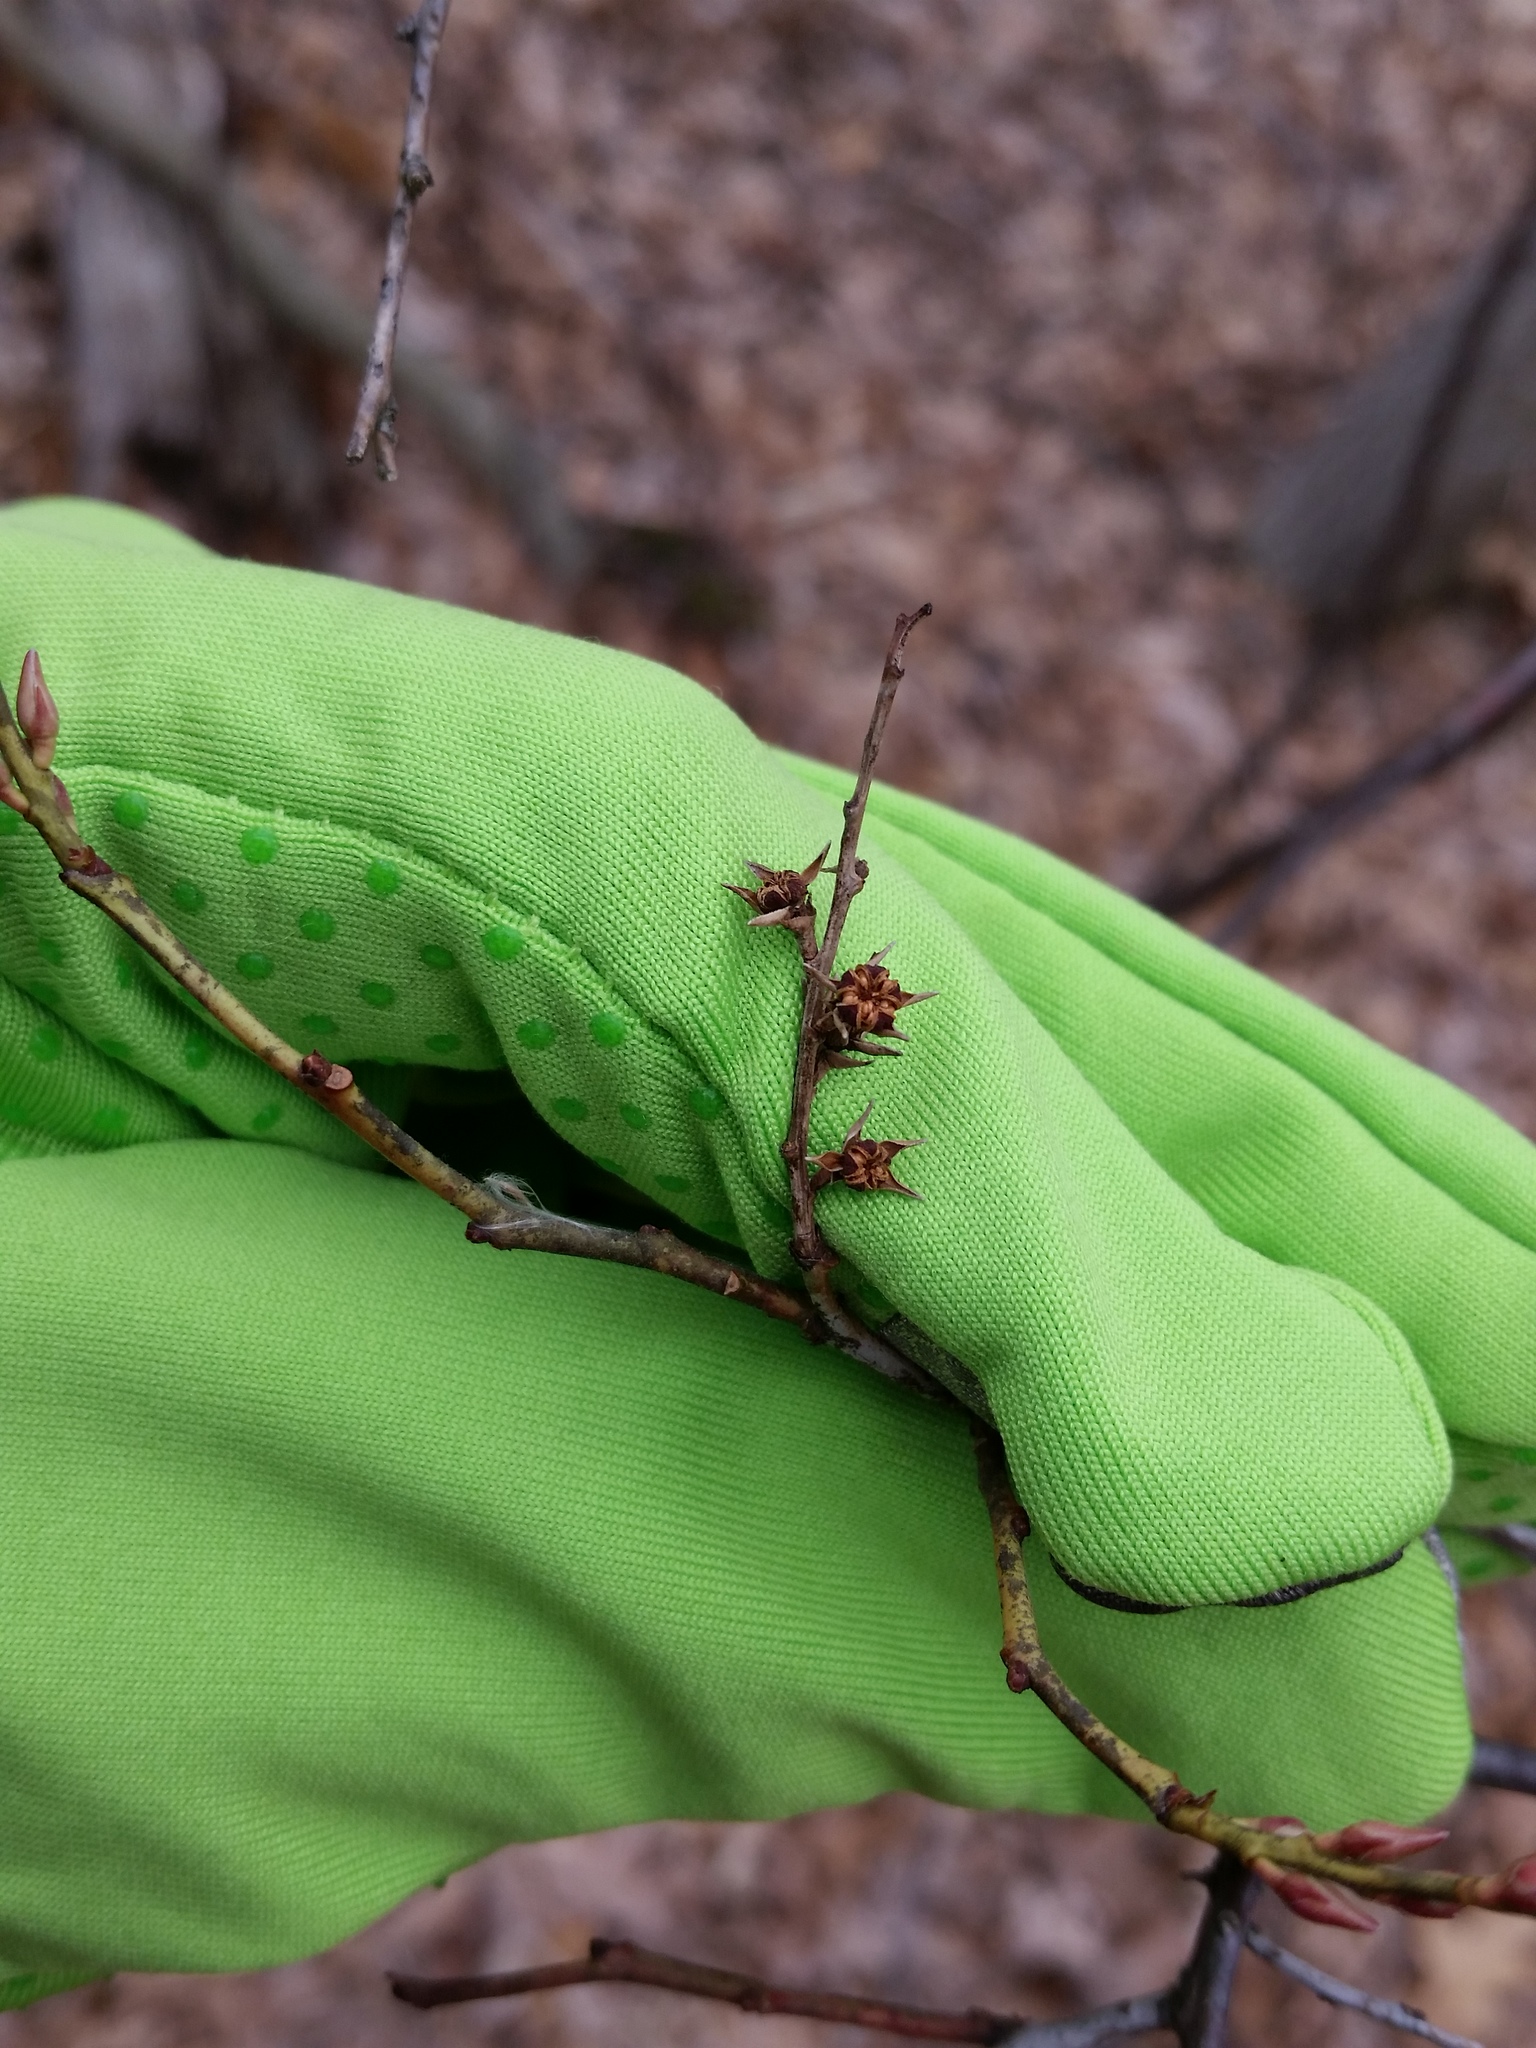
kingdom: Plantae
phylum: Tracheophyta
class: Magnoliopsida
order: Ericales
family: Ericaceae
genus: Eubotrys
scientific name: Eubotrys racemosa
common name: Fetterbush
